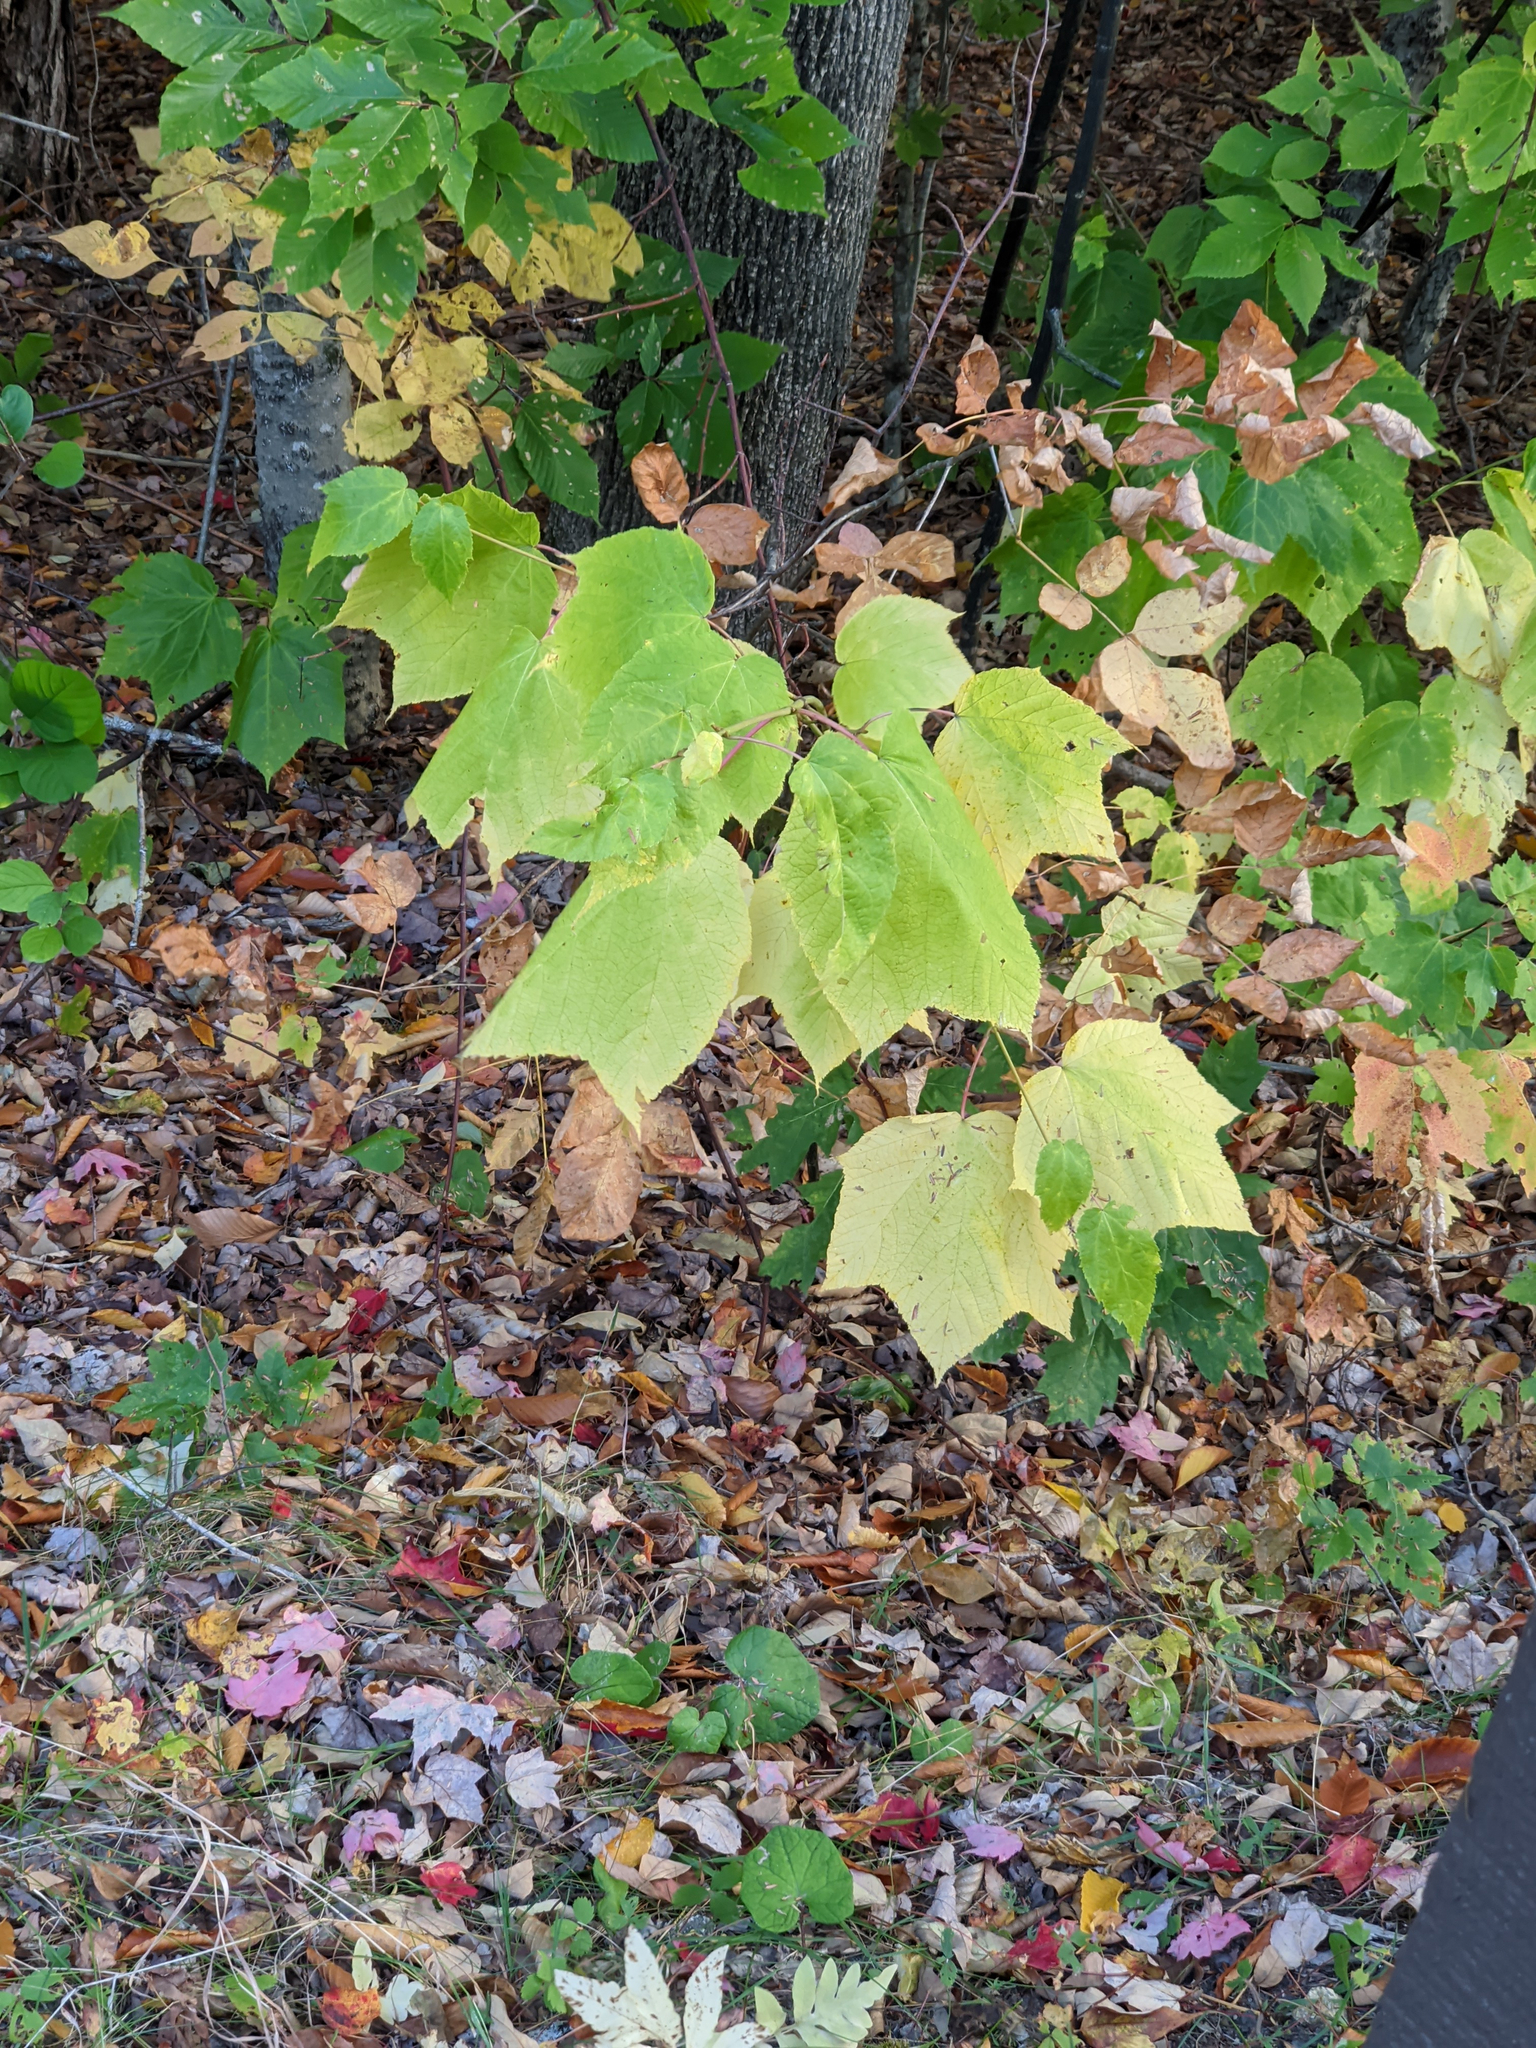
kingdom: Plantae
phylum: Tracheophyta
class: Magnoliopsida
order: Sapindales
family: Sapindaceae
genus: Acer
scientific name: Acer pensylvanicum
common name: Moosewood
